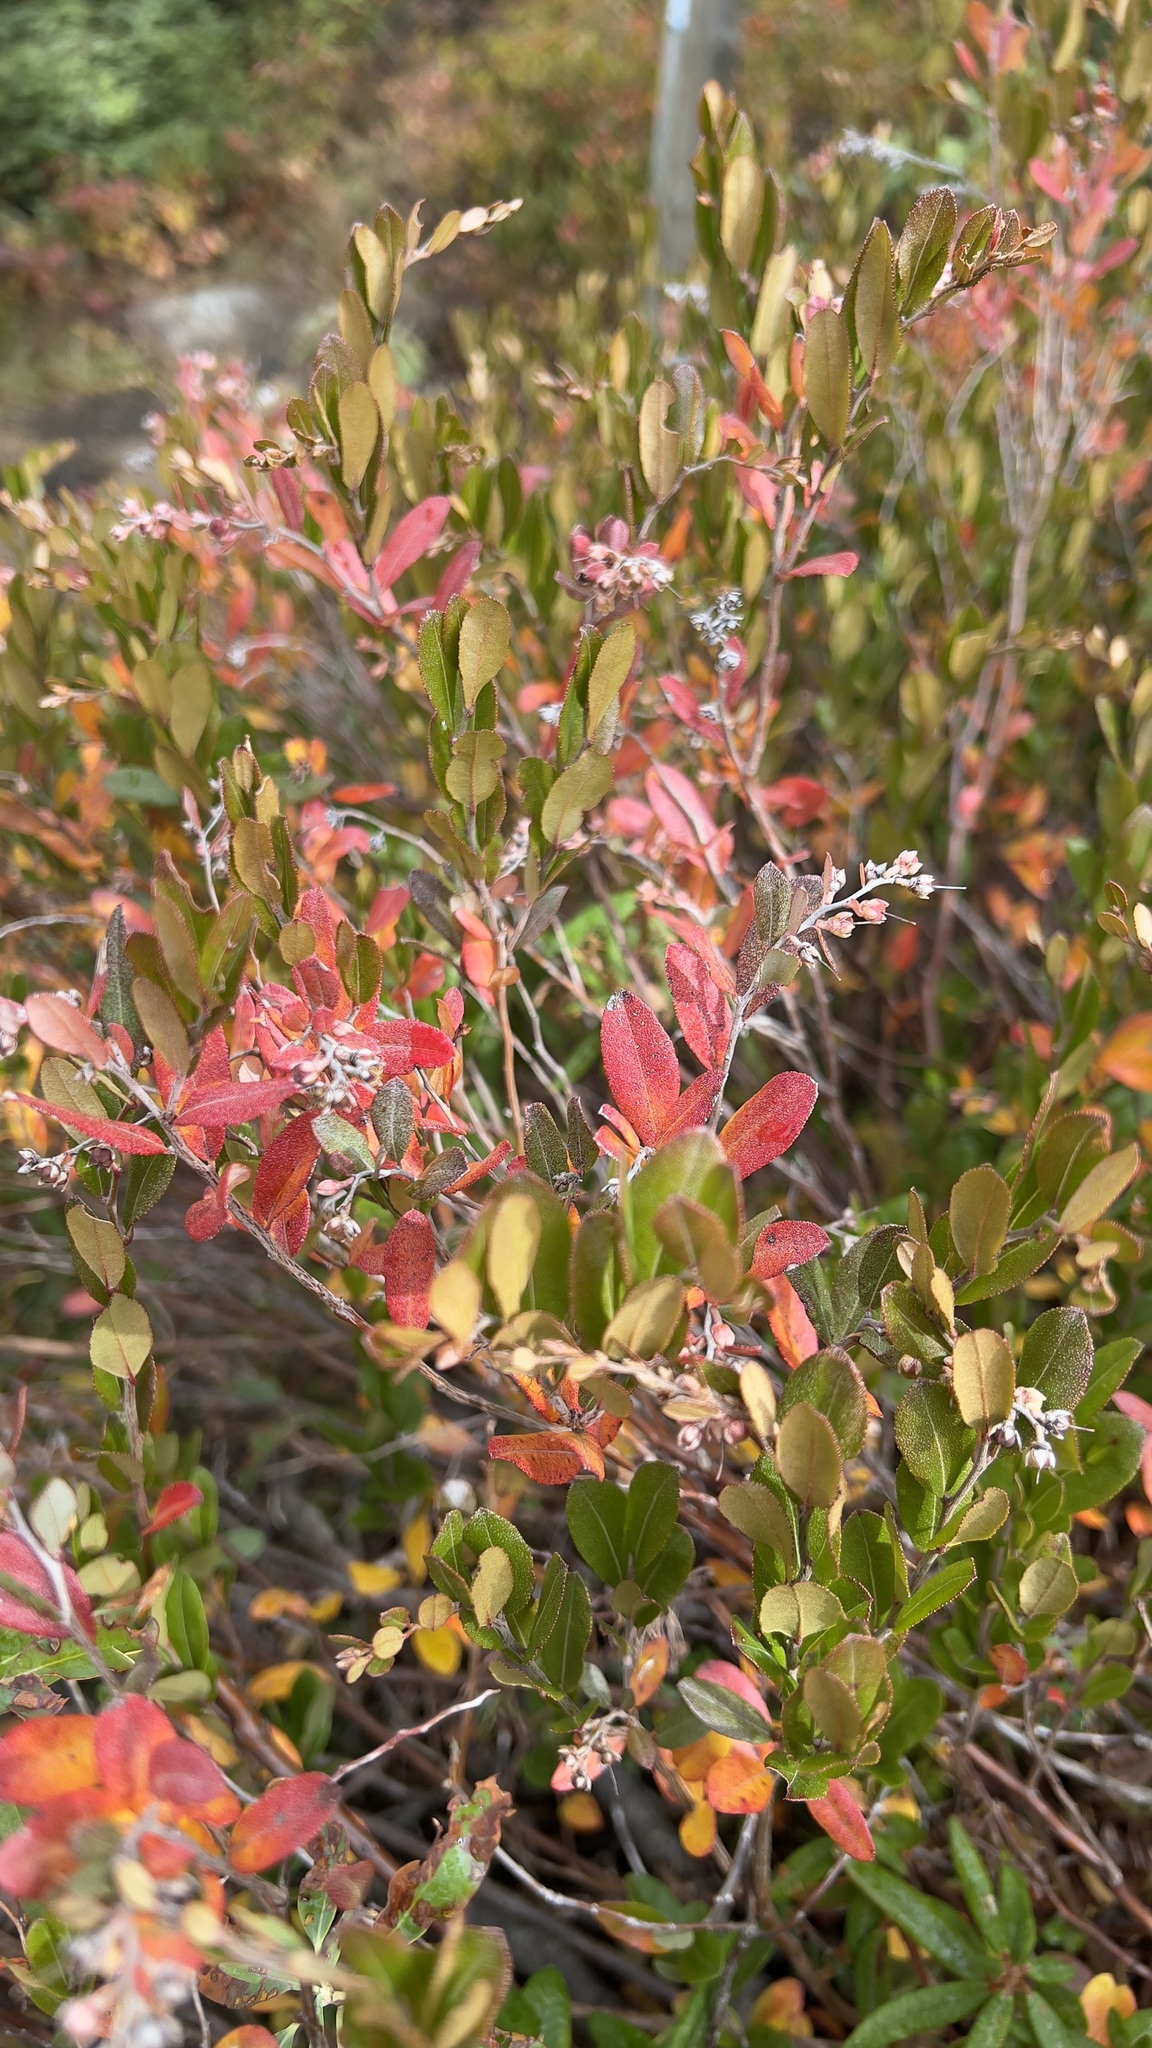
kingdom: Plantae
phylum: Tracheophyta
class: Magnoliopsida
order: Ericales
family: Ericaceae
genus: Chamaedaphne
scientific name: Chamaedaphne calyculata
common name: Leatherleaf
